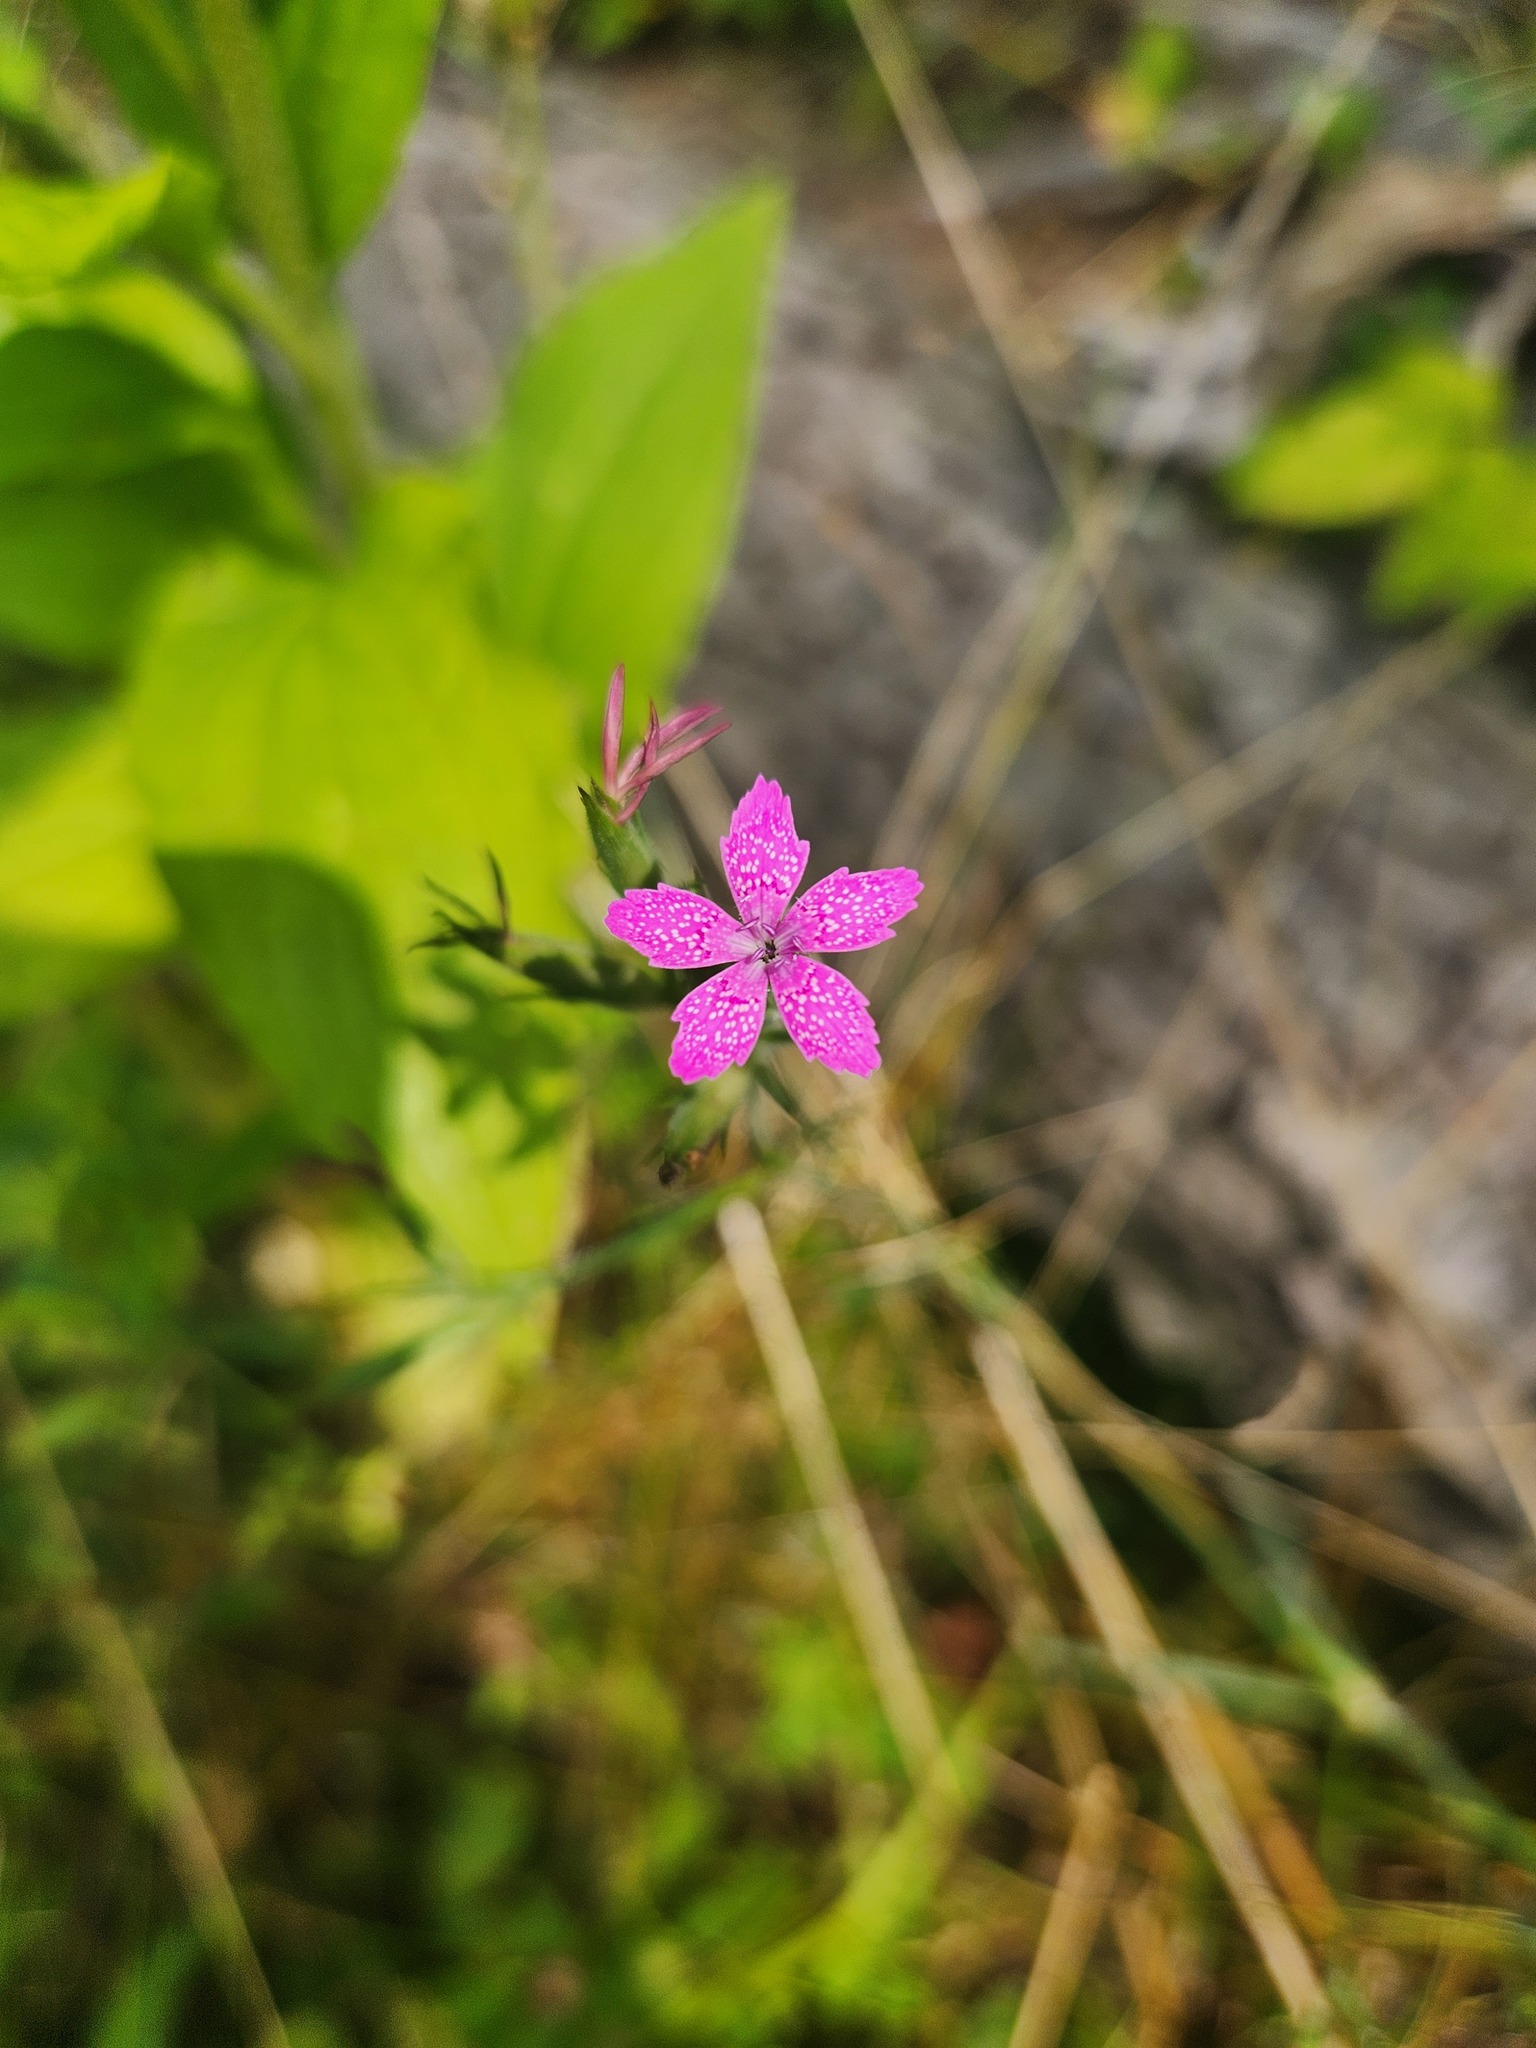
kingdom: Plantae
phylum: Tracheophyta
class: Magnoliopsida
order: Caryophyllales
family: Caryophyllaceae
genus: Dianthus
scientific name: Dianthus armeria
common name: Deptford pink
